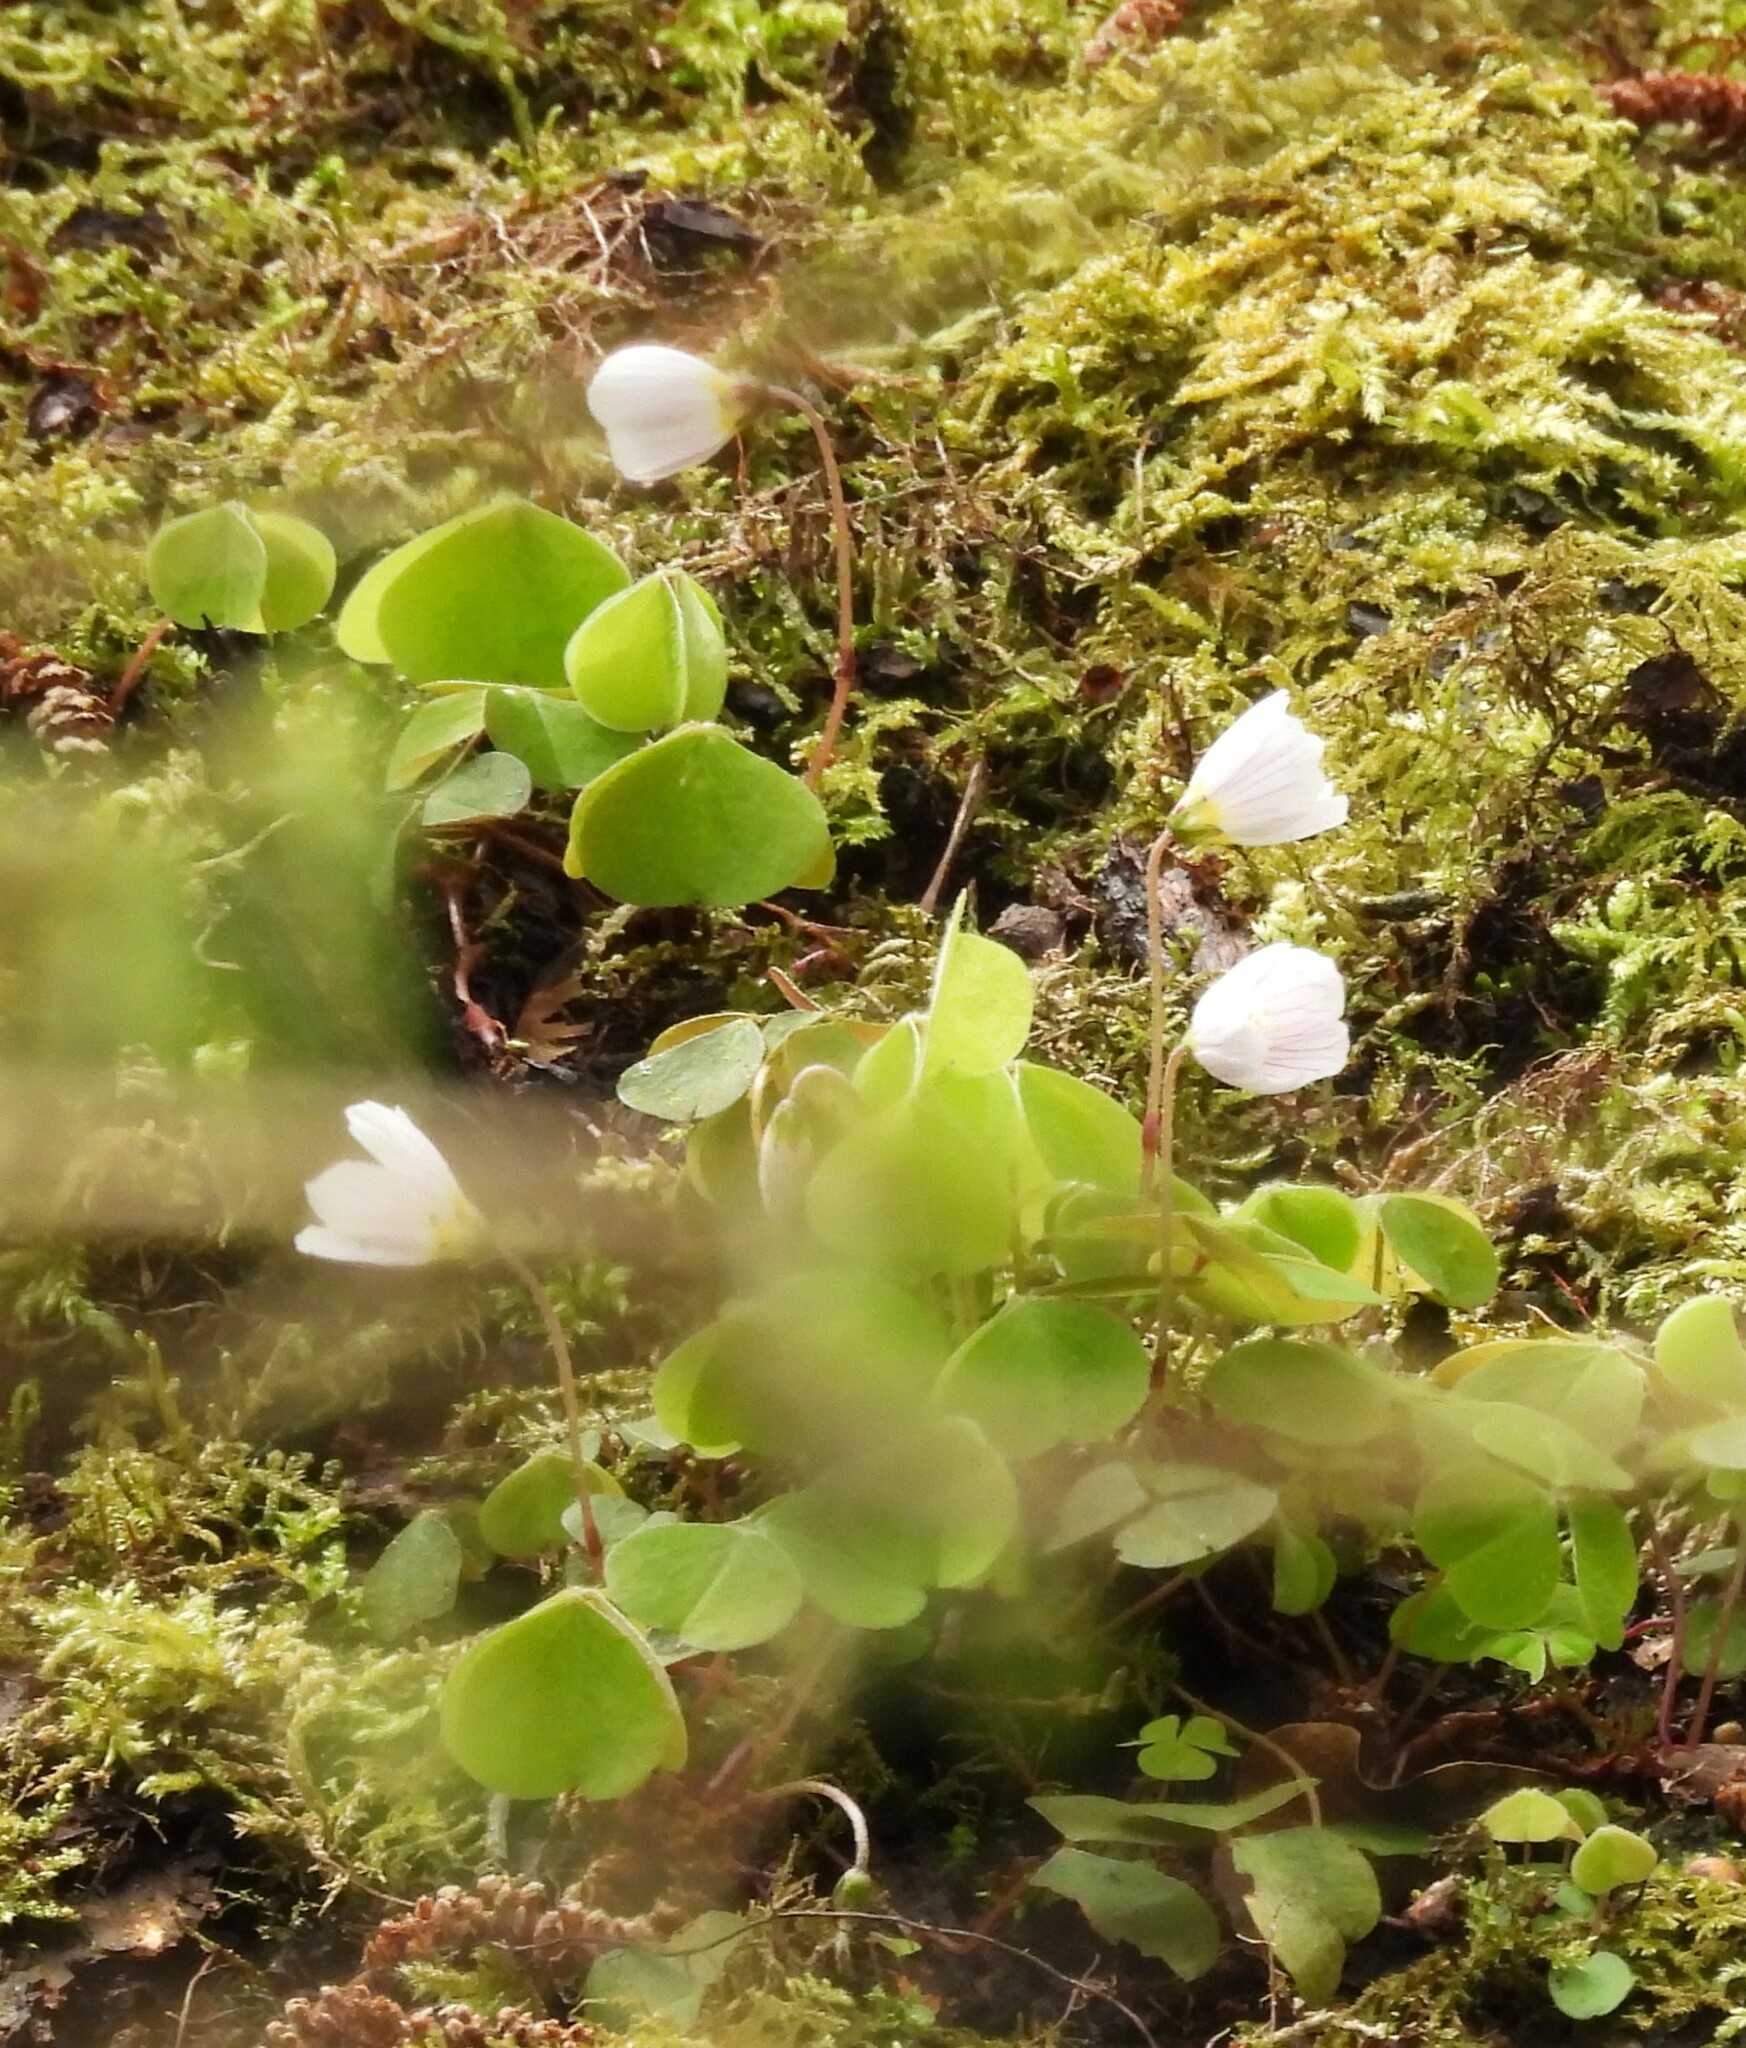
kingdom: Plantae
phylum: Tracheophyta
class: Magnoliopsida
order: Oxalidales
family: Oxalidaceae
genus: Oxalis
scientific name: Oxalis acetosella
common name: Wood-sorrel
